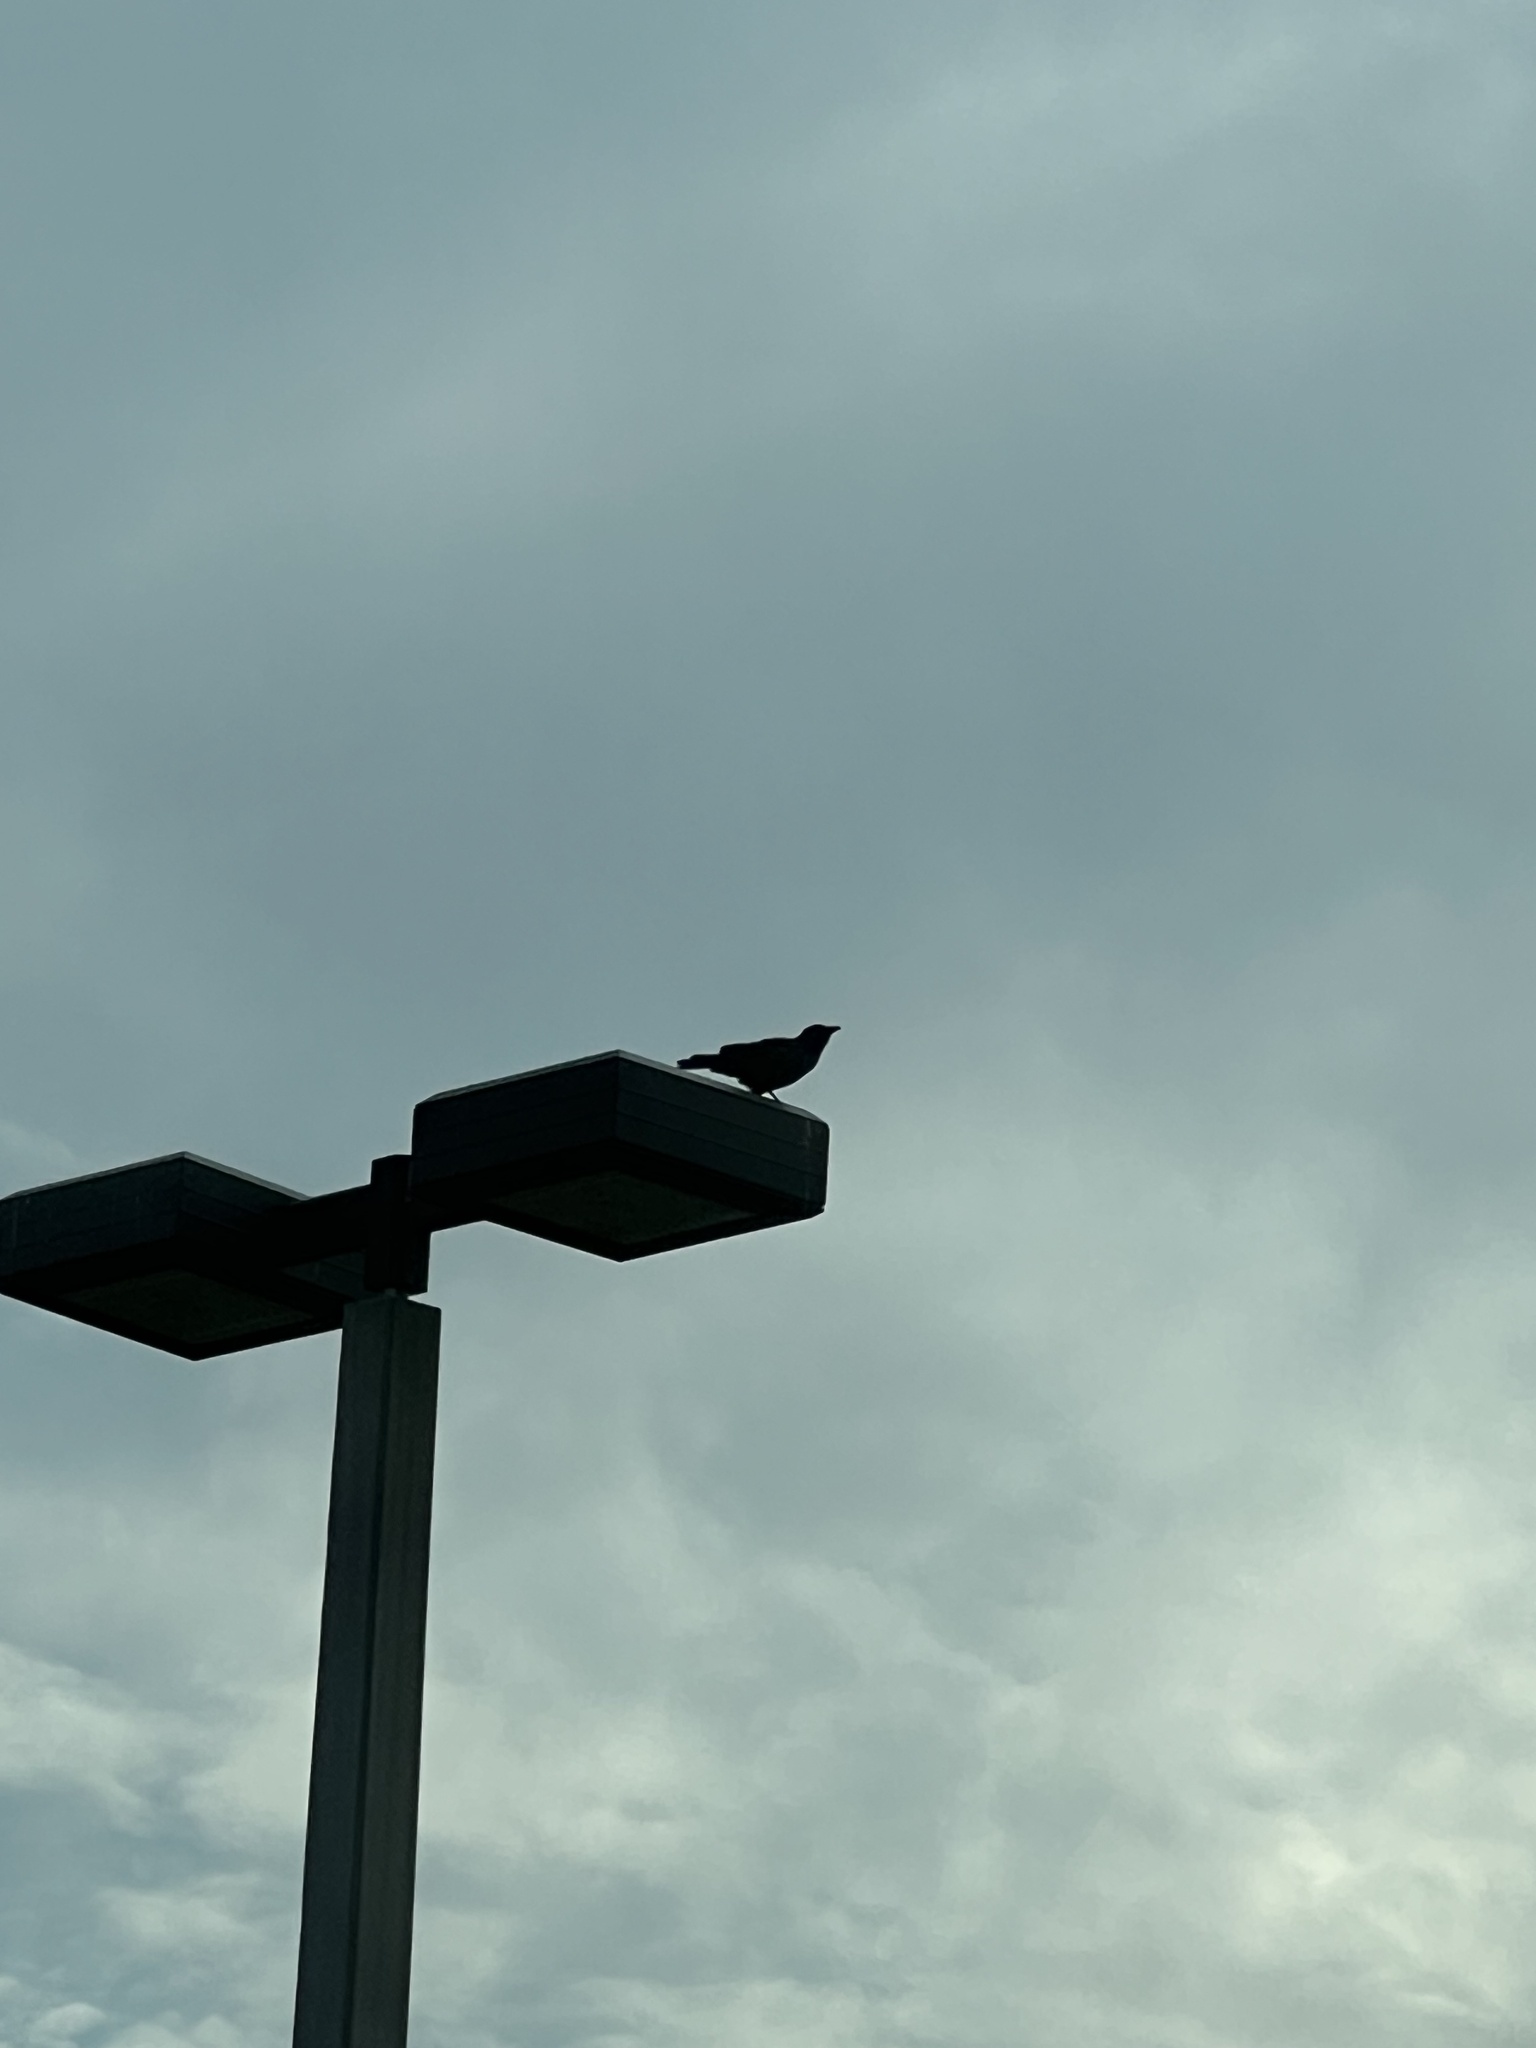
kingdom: Animalia
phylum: Chordata
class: Aves
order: Passeriformes
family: Corvidae
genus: Corvus
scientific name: Corvus
